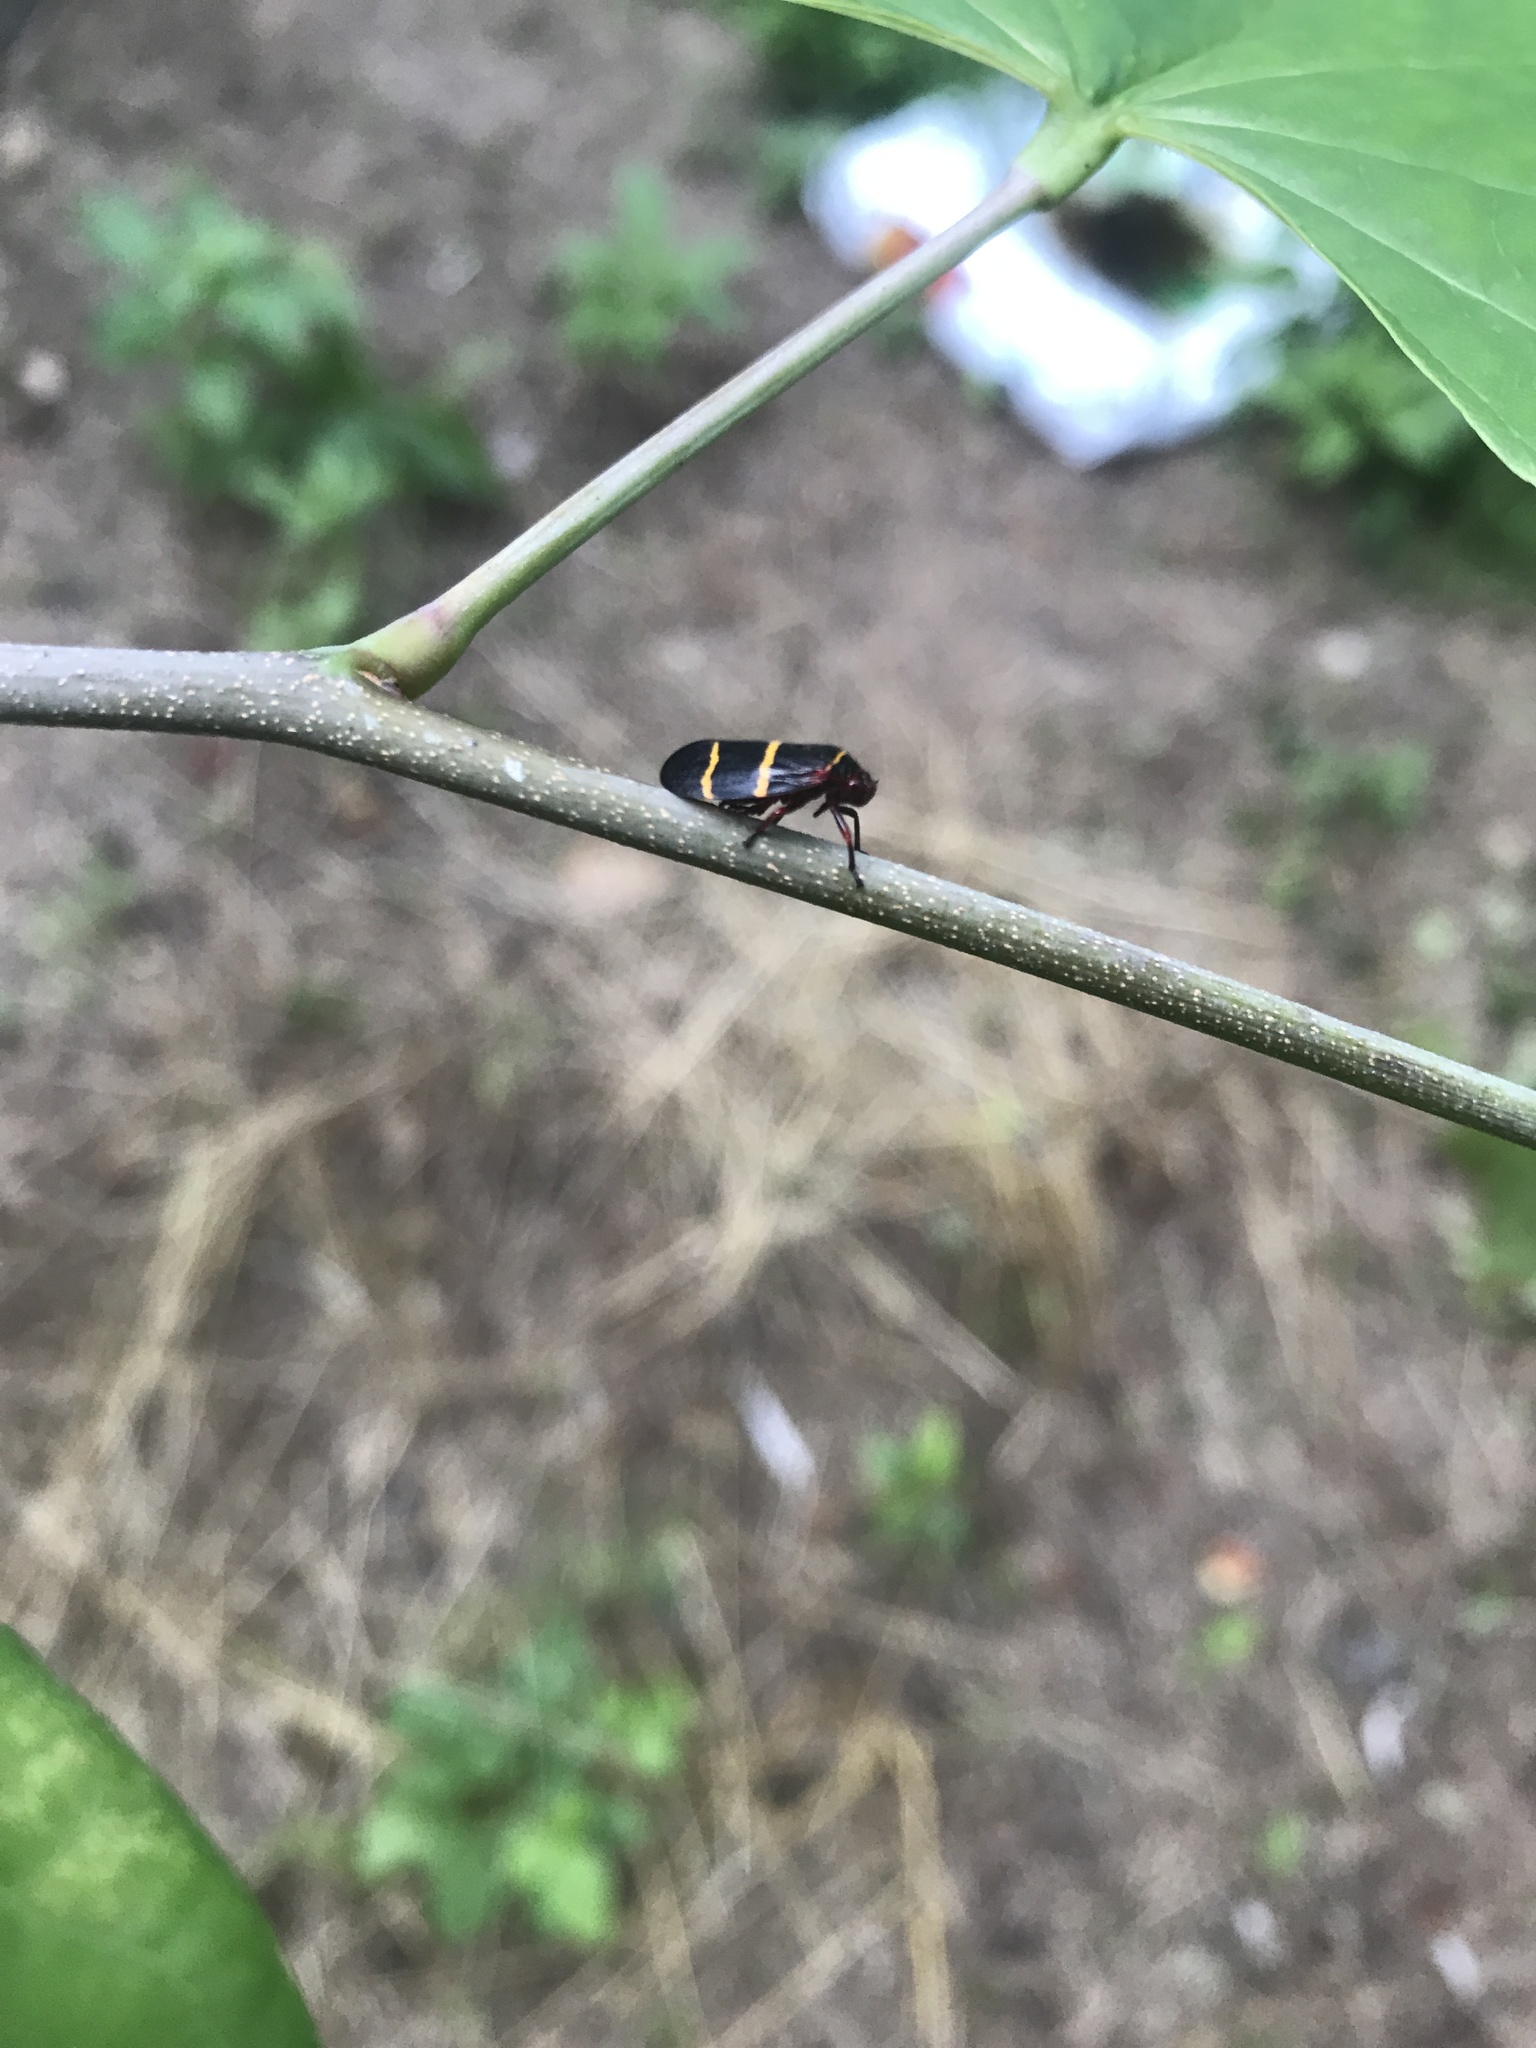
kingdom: Animalia
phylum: Arthropoda
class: Insecta
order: Hemiptera
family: Cercopidae
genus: Prosapia
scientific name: Prosapia bicincta
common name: Twolined spittlebug
